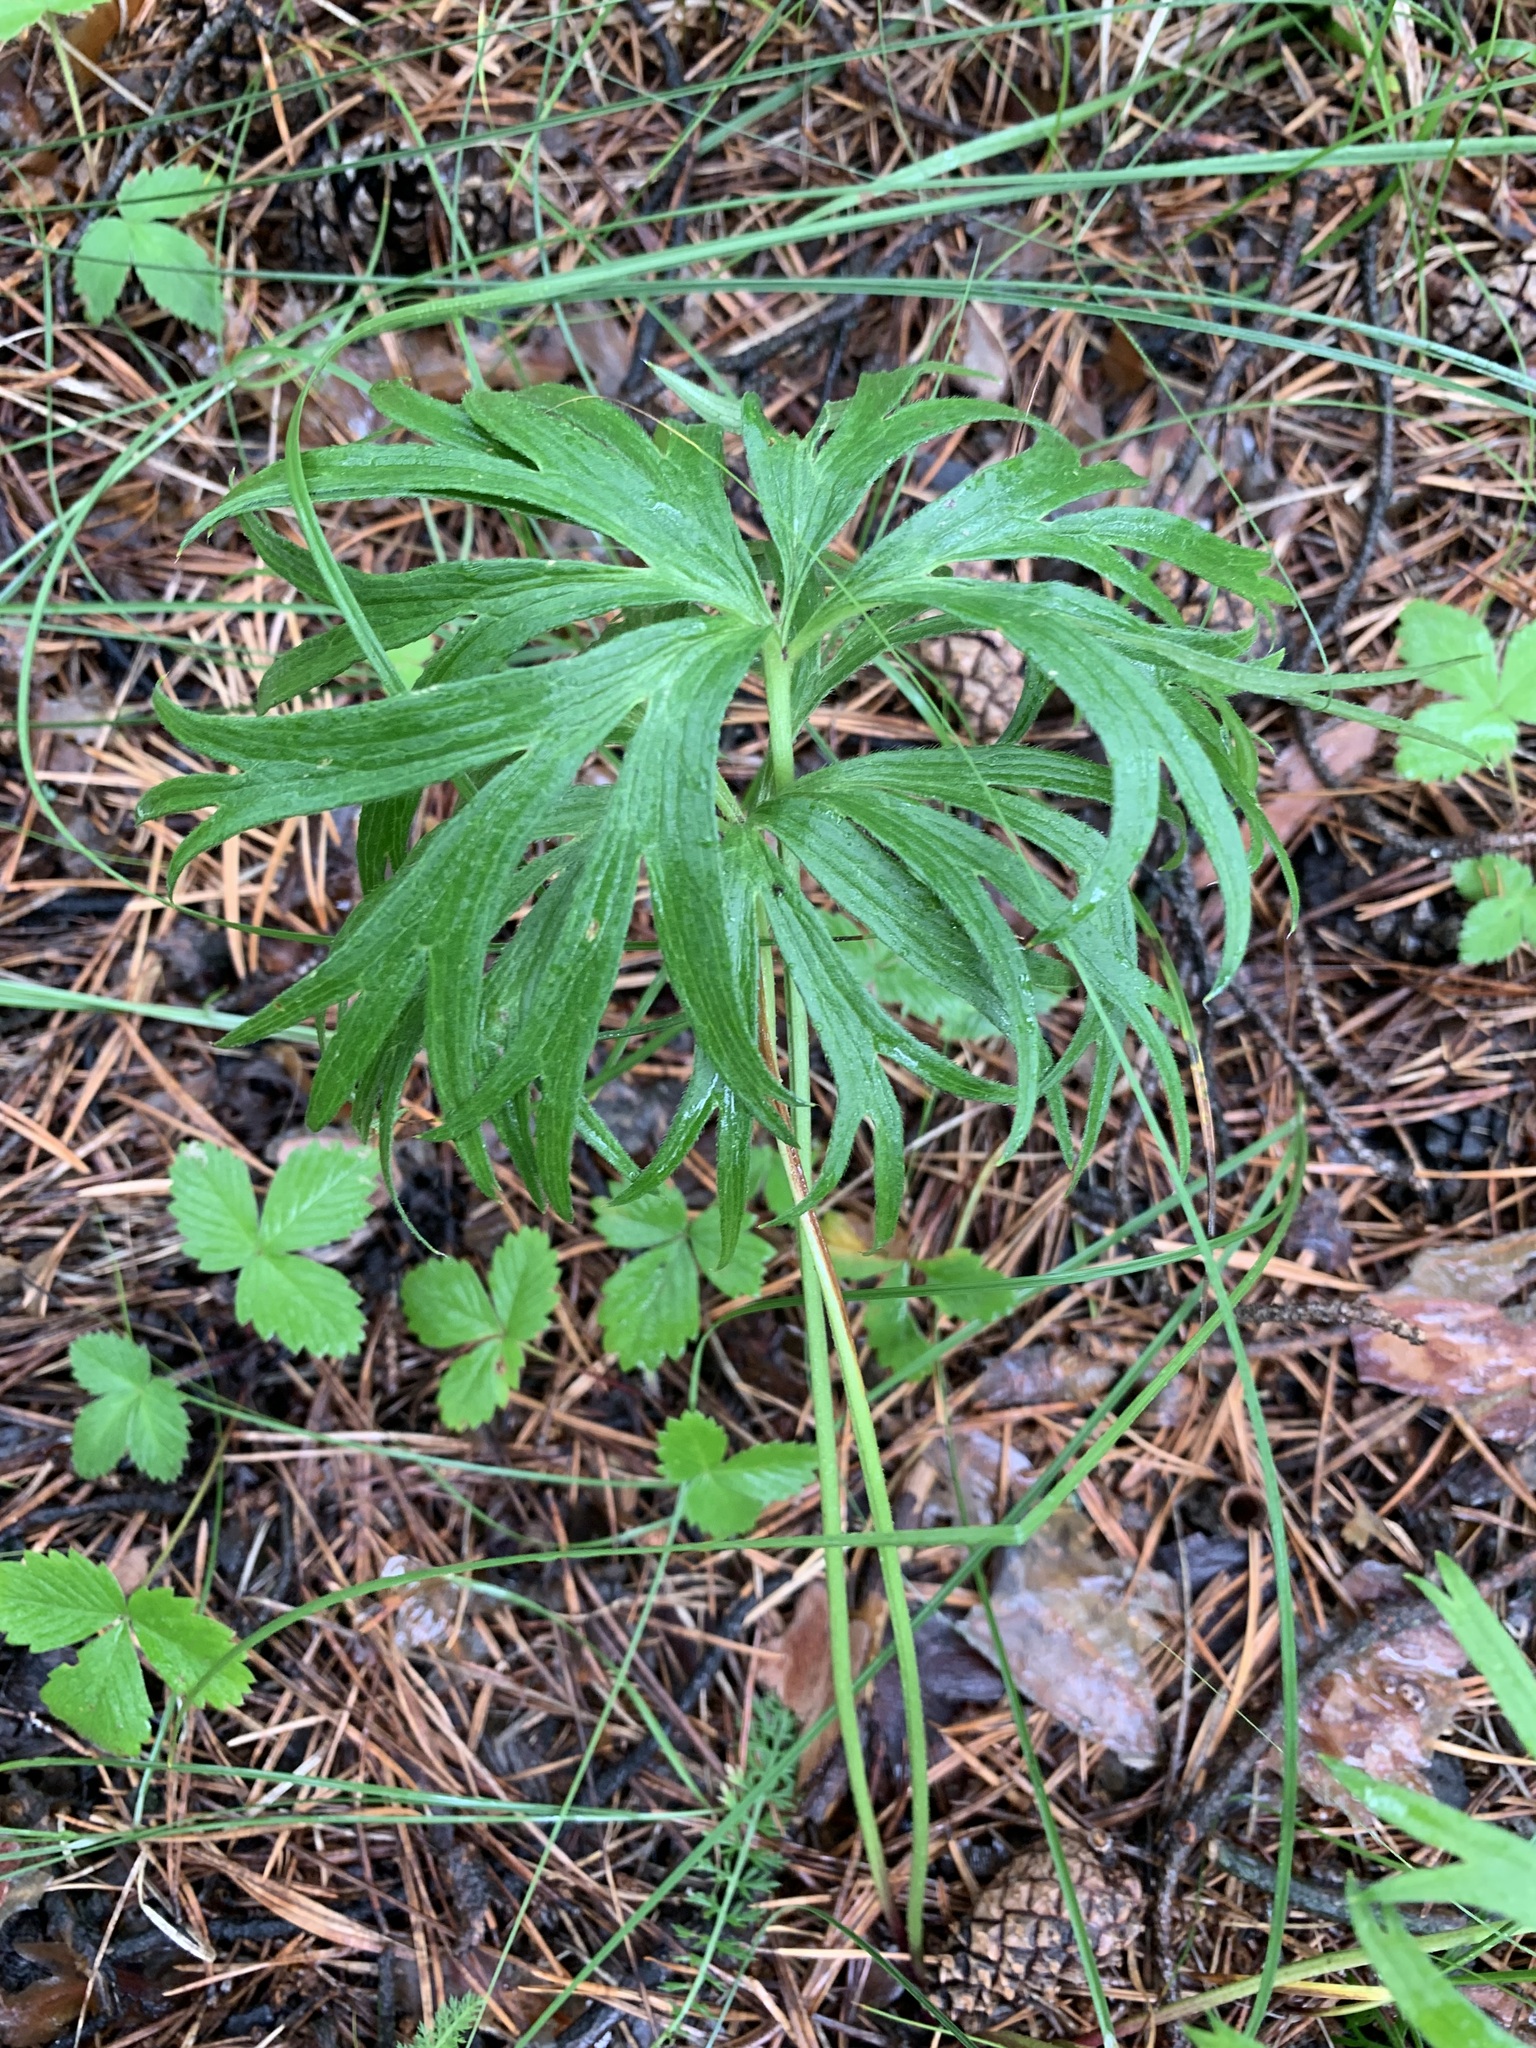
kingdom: Plantae
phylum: Tracheophyta
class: Magnoliopsida
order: Ranunculales
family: Ranunculaceae
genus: Pulsatilla
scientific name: Pulsatilla patens
